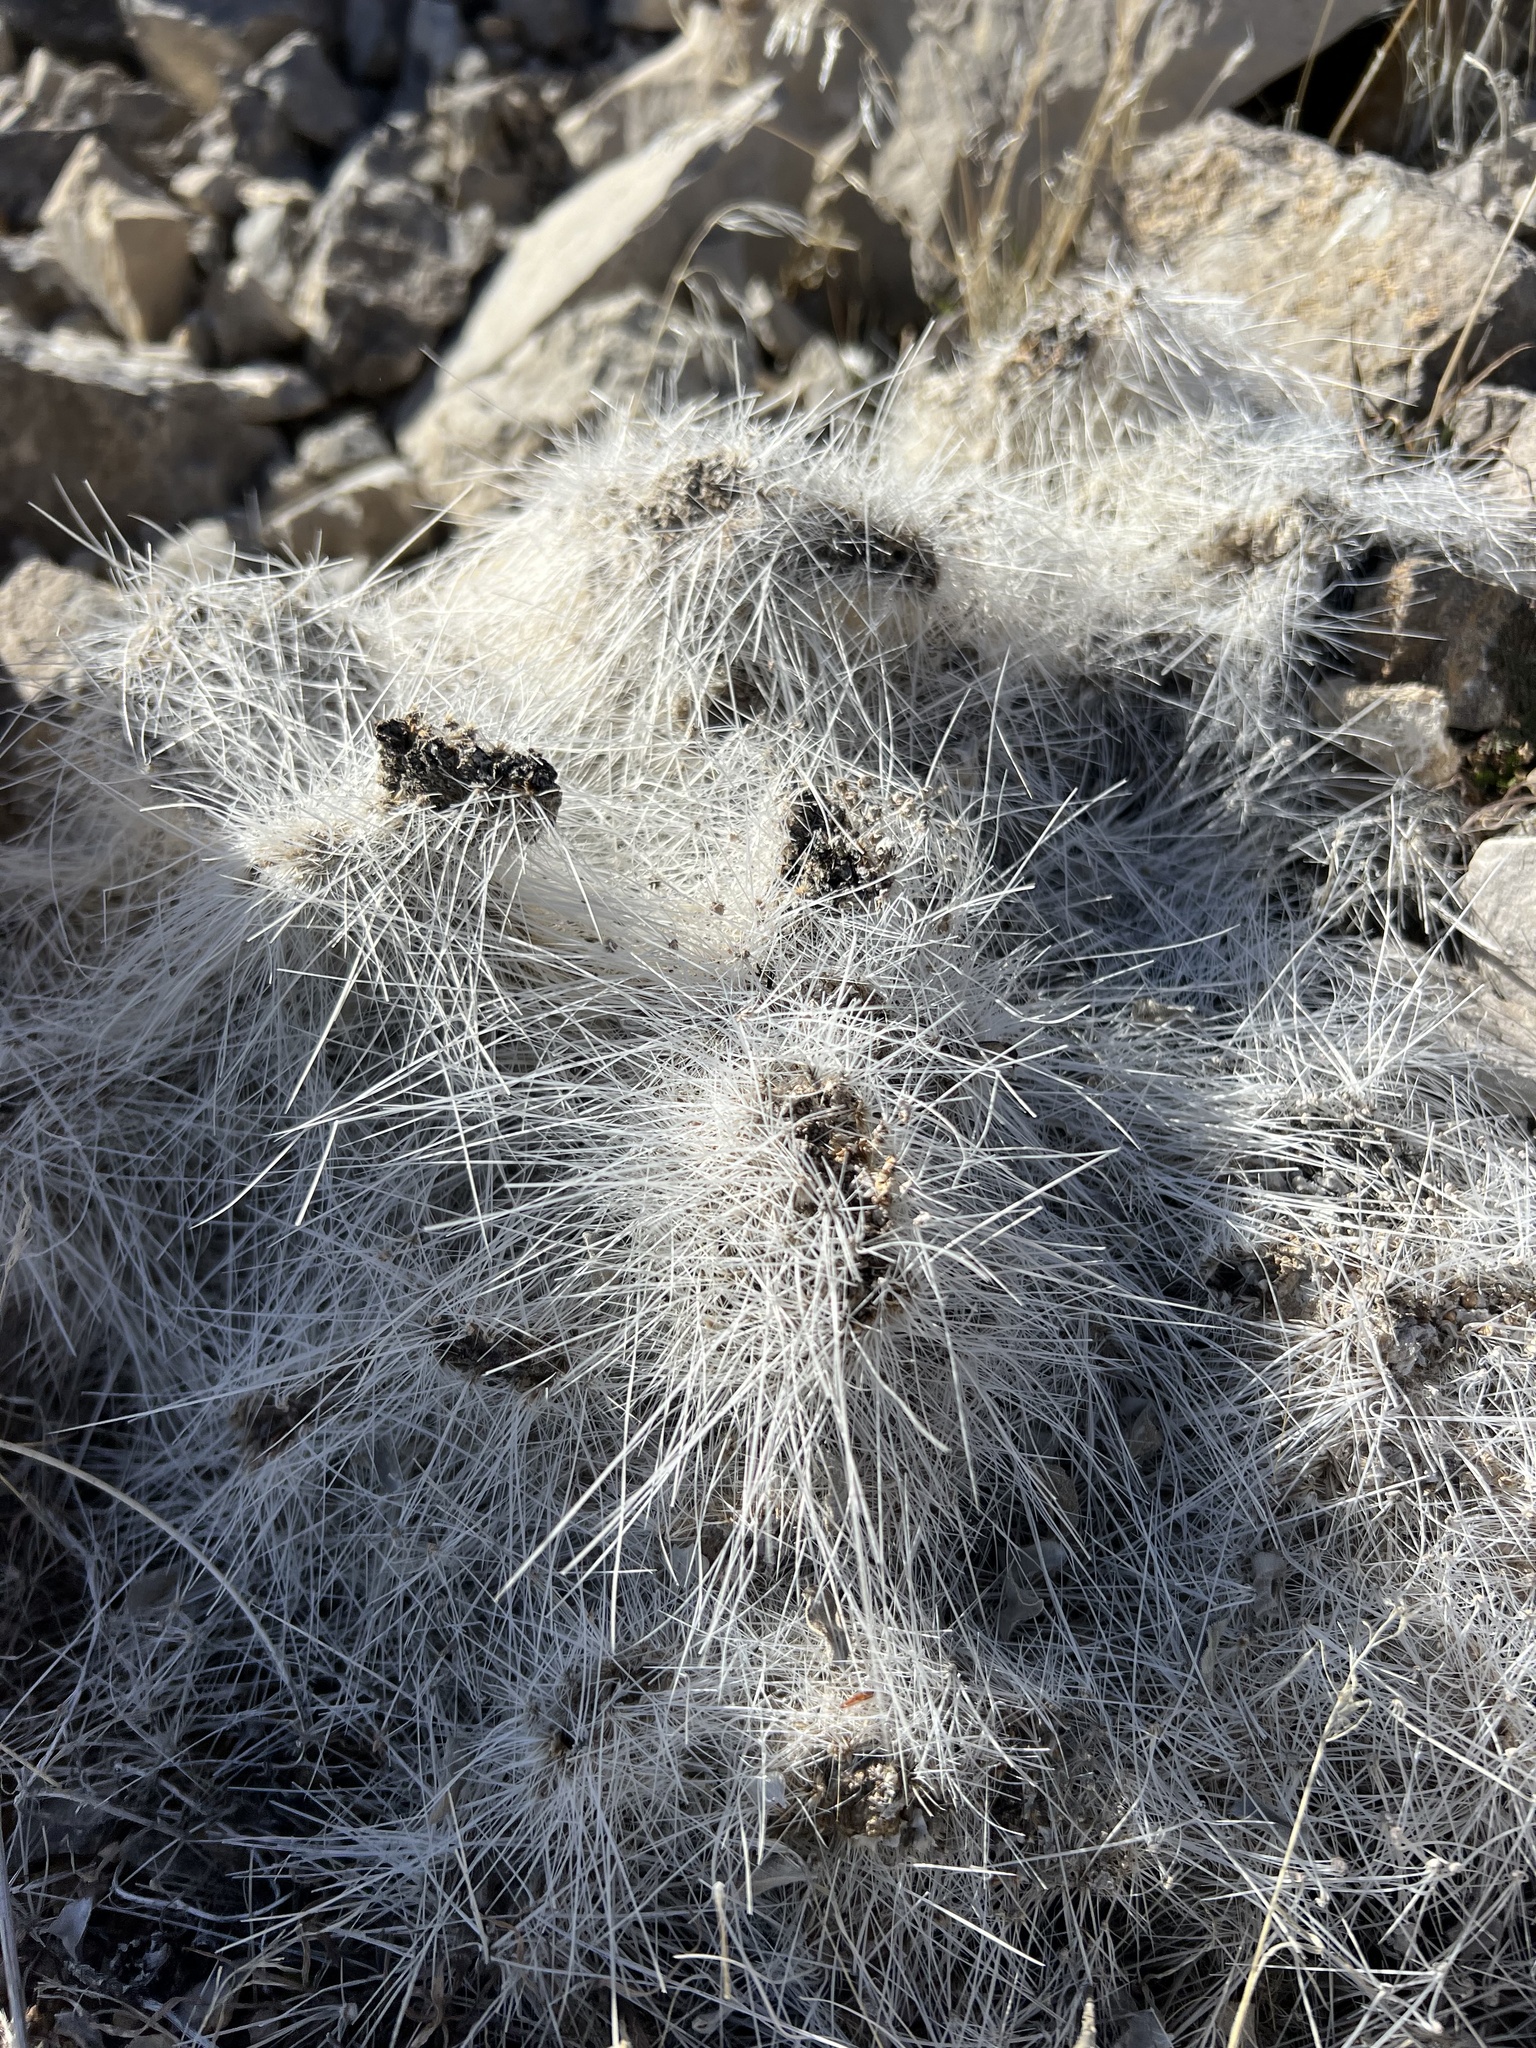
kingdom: Plantae
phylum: Tracheophyta
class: Magnoliopsida
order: Caryophyllales
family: Cactaceae
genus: Opuntia
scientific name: Opuntia polyacantha
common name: Plains prickly-pear
